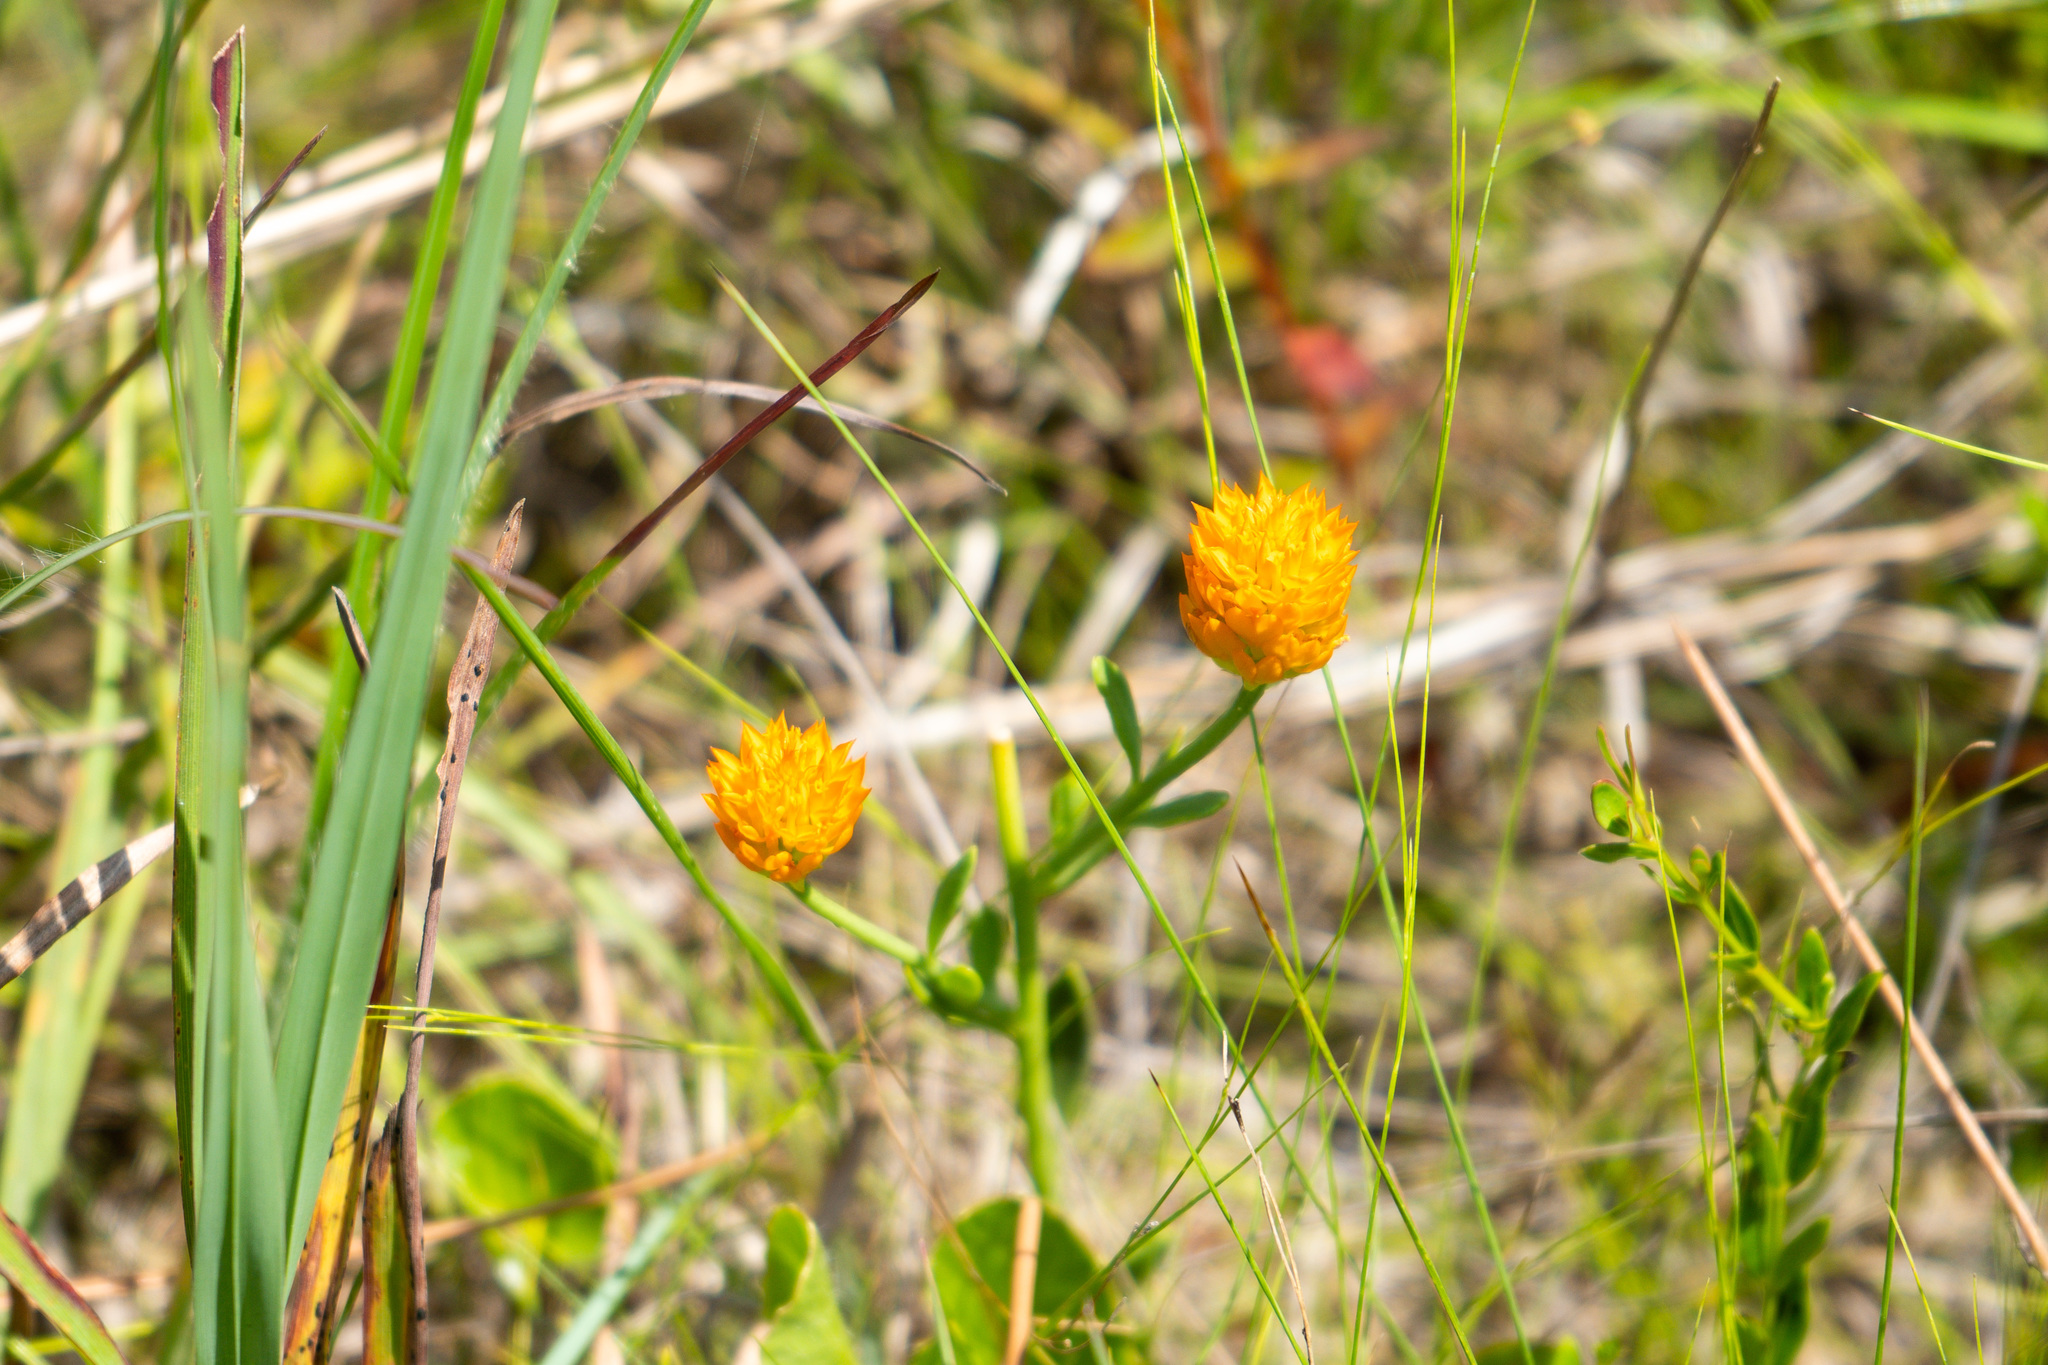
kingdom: Plantae
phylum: Tracheophyta
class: Magnoliopsida
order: Fabales
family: Polygalaceae
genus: Polygala
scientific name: Polygala lutea
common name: Orange milkwort
